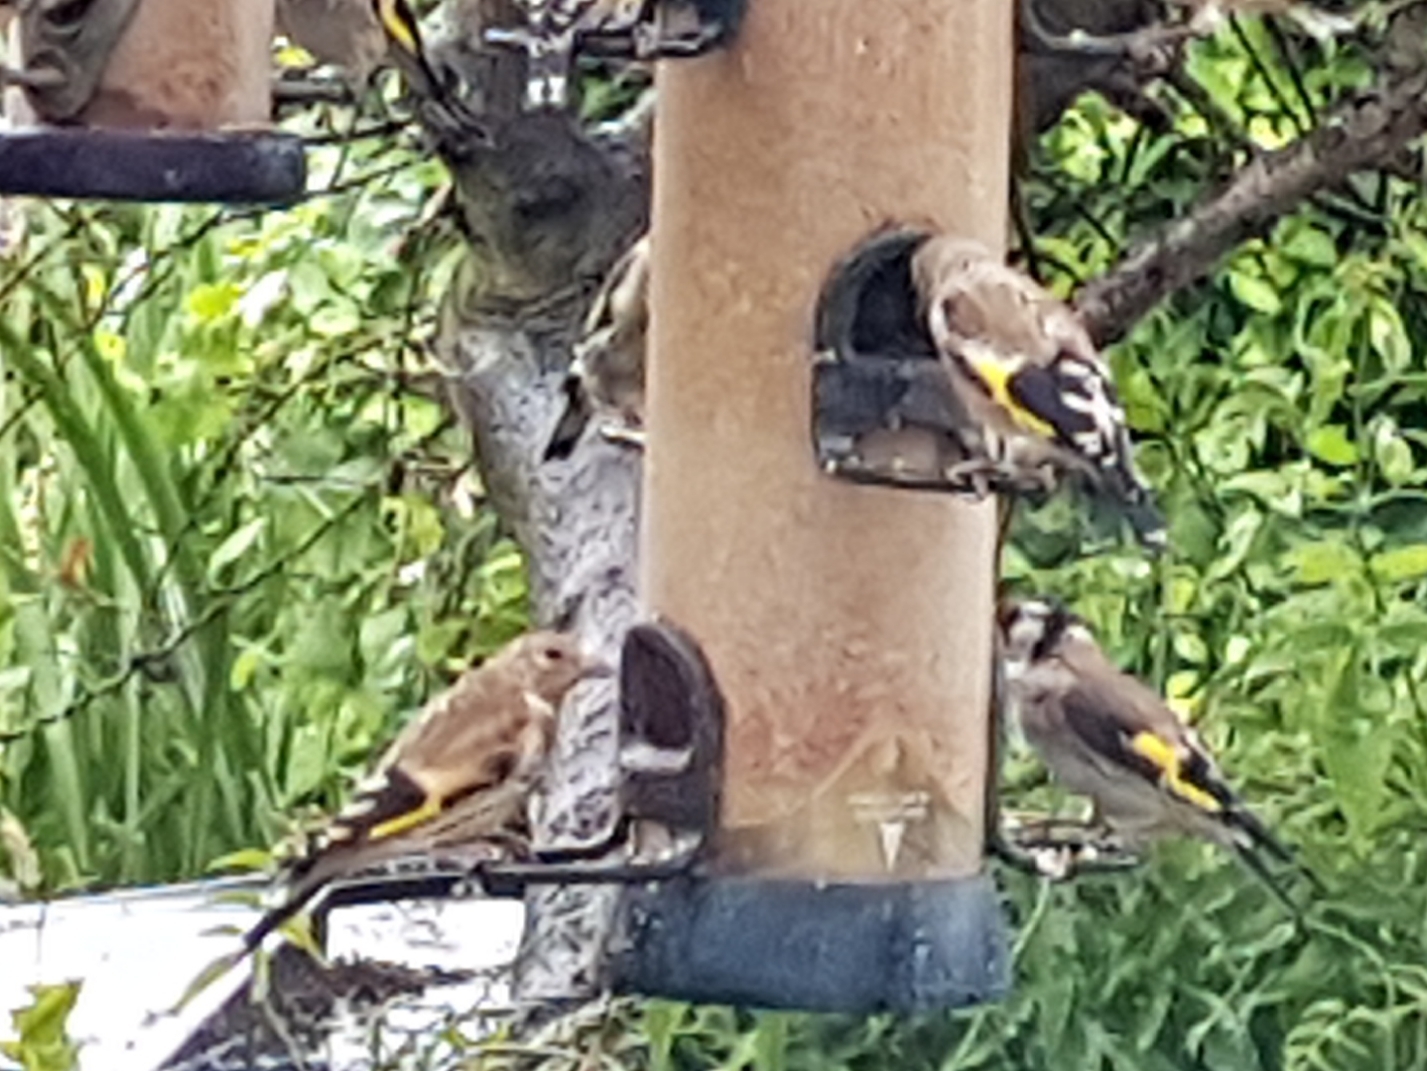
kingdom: Animalia
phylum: Chordata
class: Aves
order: Passeriformes
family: Fringillidae
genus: Carduelis
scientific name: Carduelis carduelis
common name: European goldfinch
